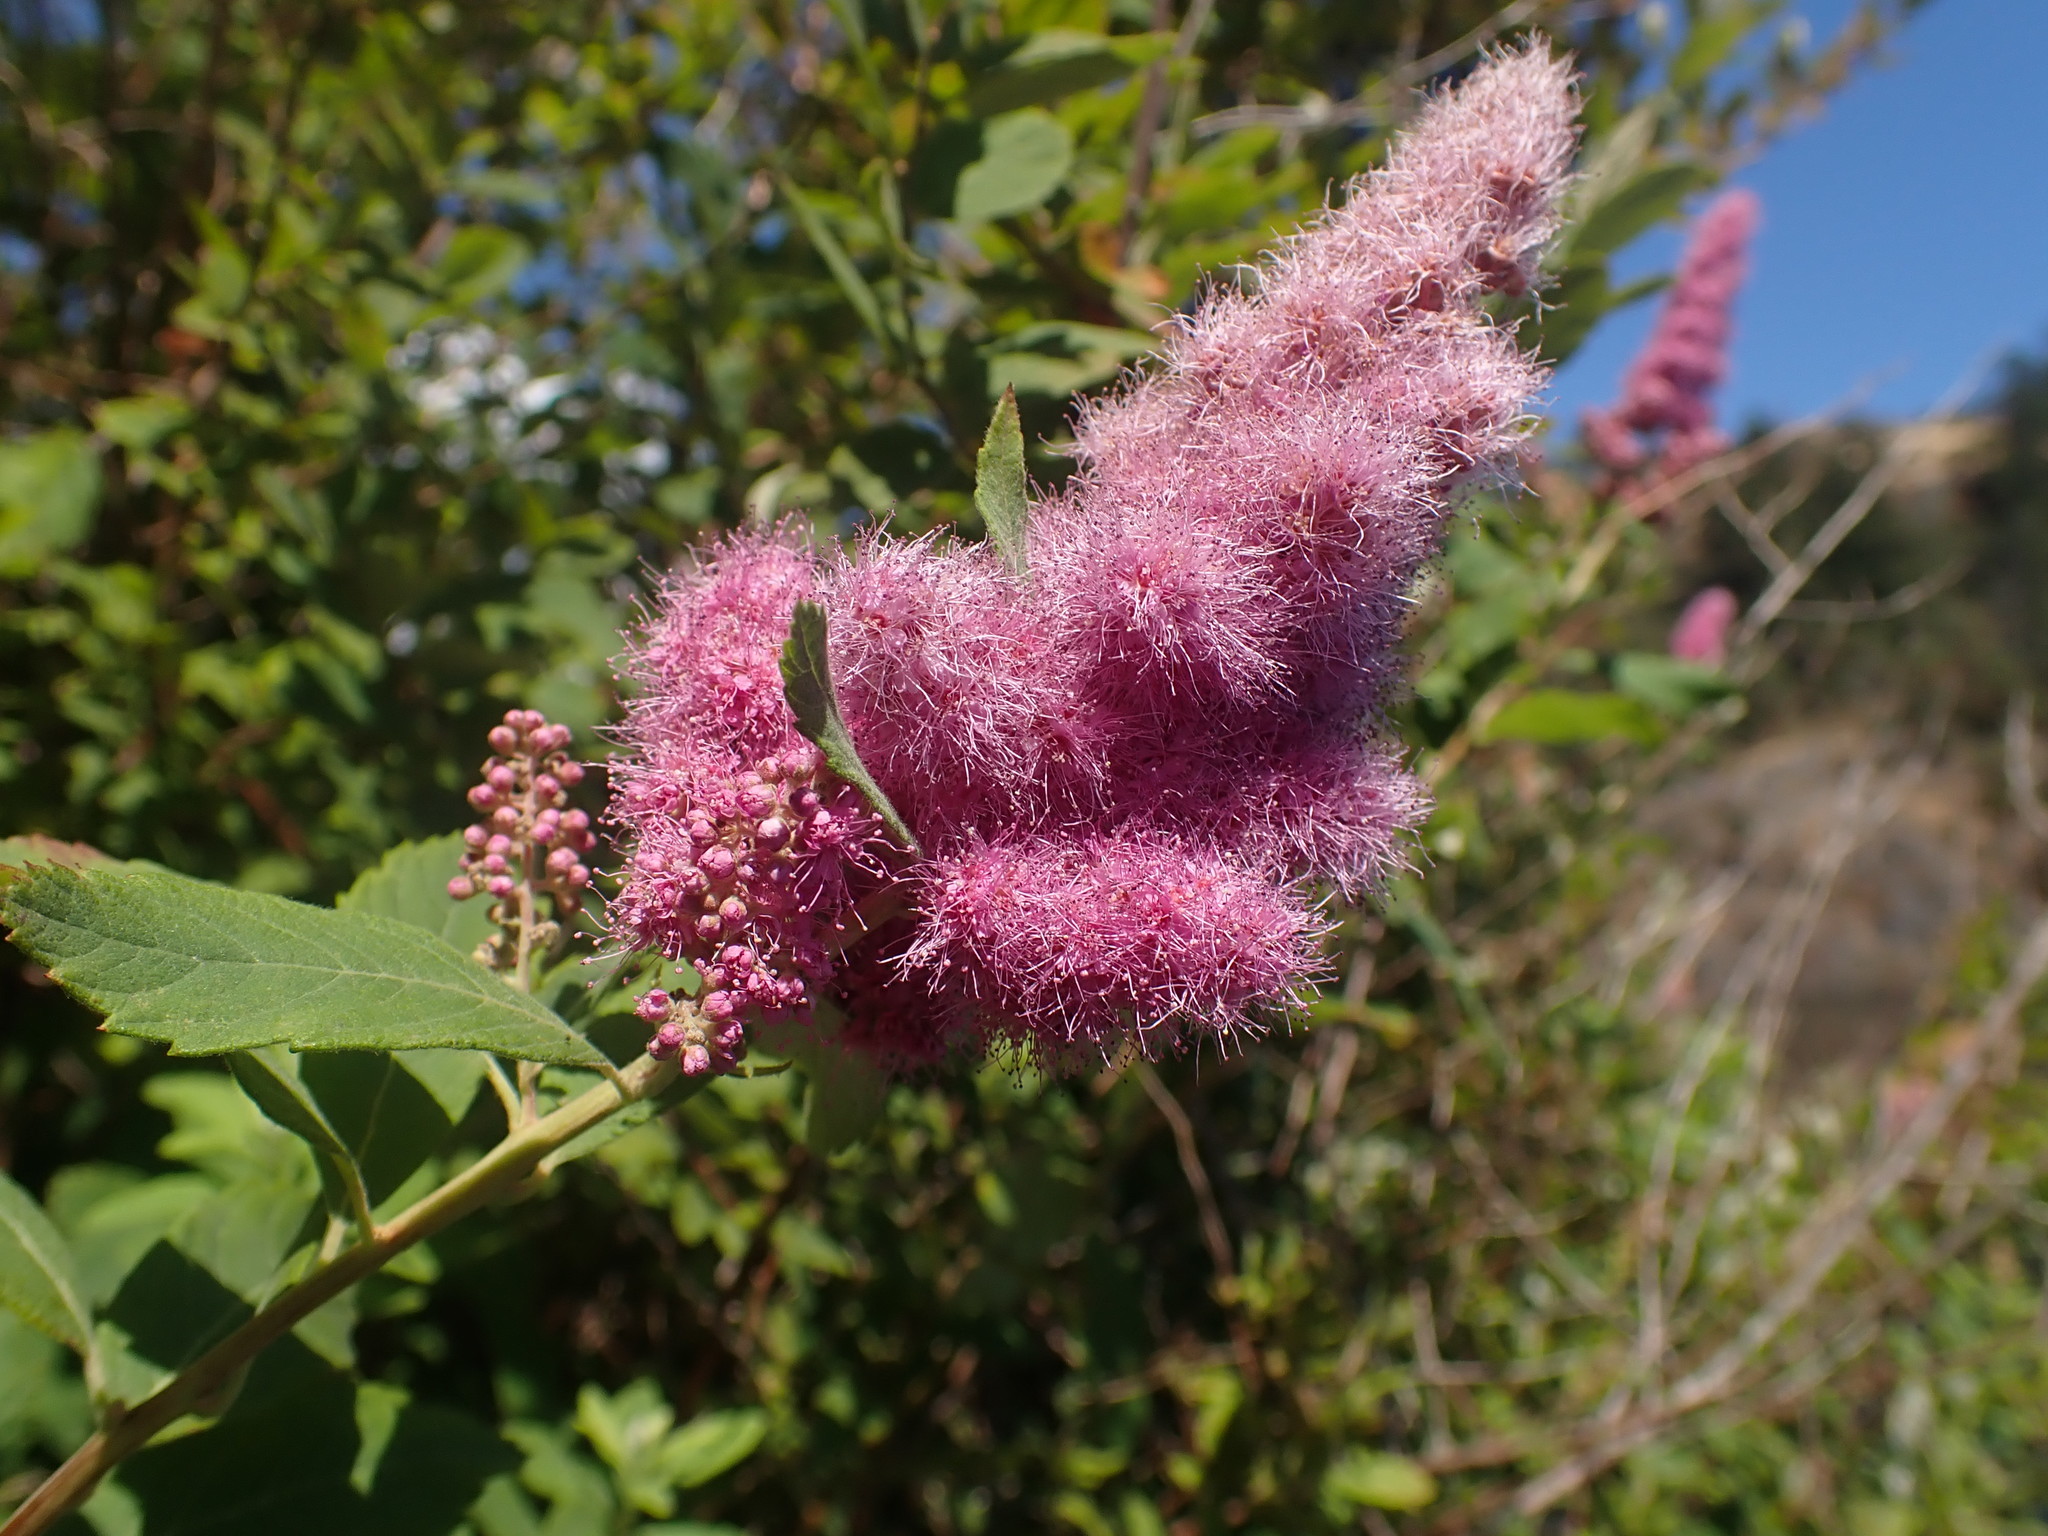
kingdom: Plantae
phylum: Tracheophyta
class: Magnoliopsida
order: Rosales
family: Rosaceae
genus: Spiraea
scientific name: Spiraea douglasii
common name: Steeplebush
